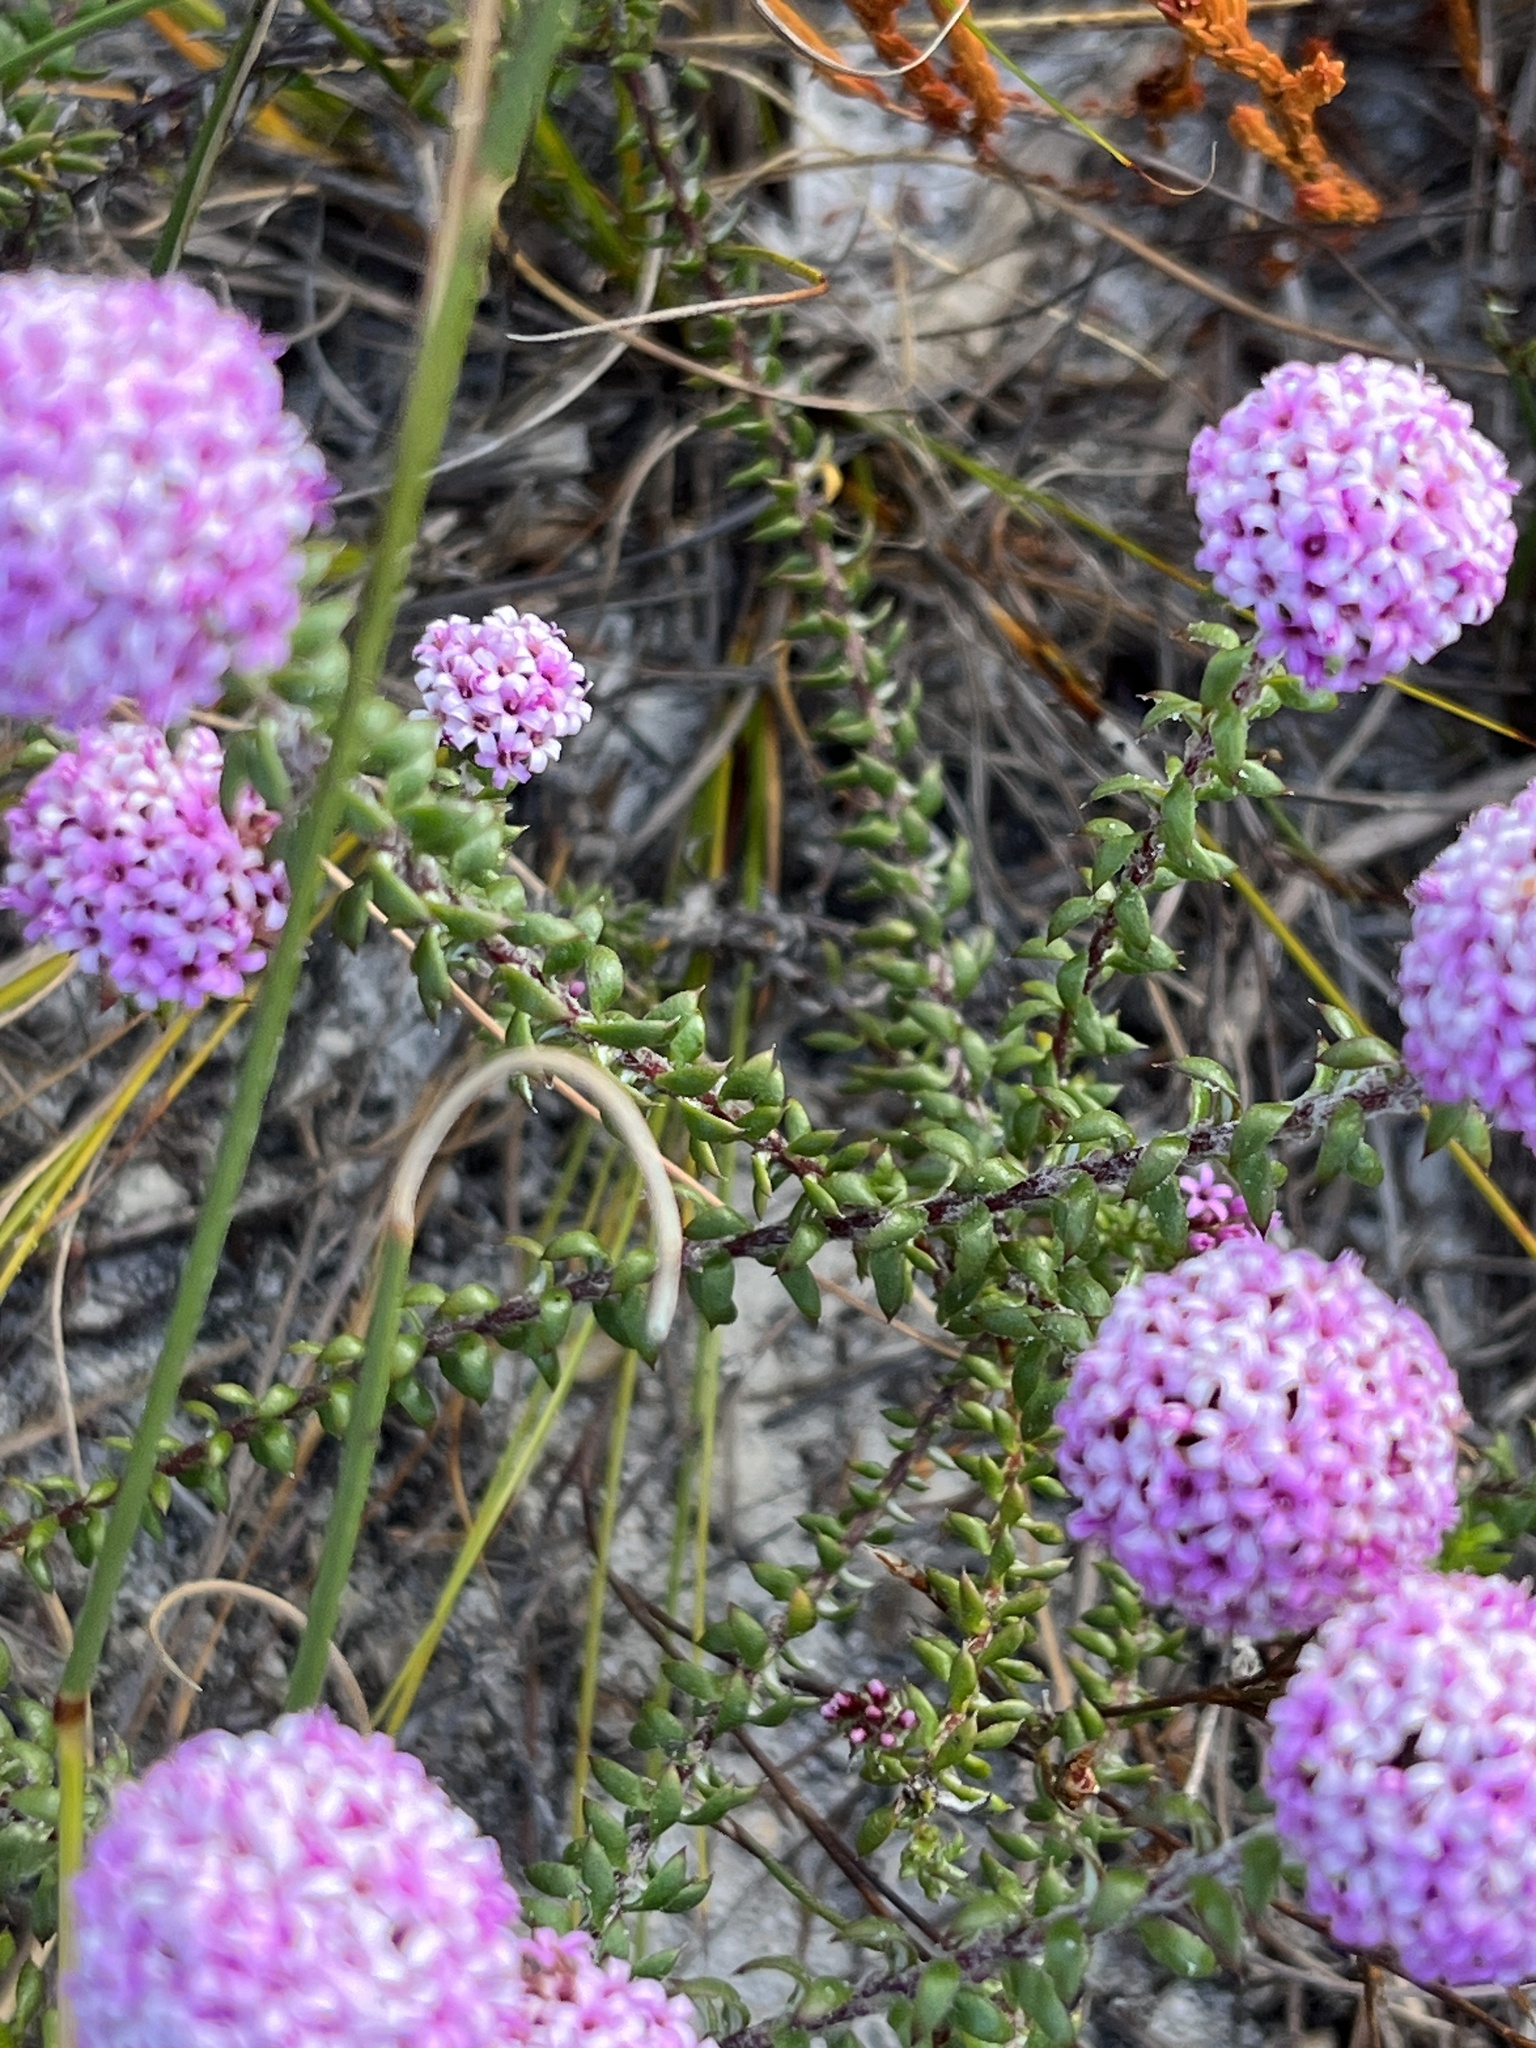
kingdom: Plantae
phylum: Tracheophyta
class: Magnoliopsida
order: Asterales
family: Asteraceae
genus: Stoebe
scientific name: Stoebe cyathuloides
